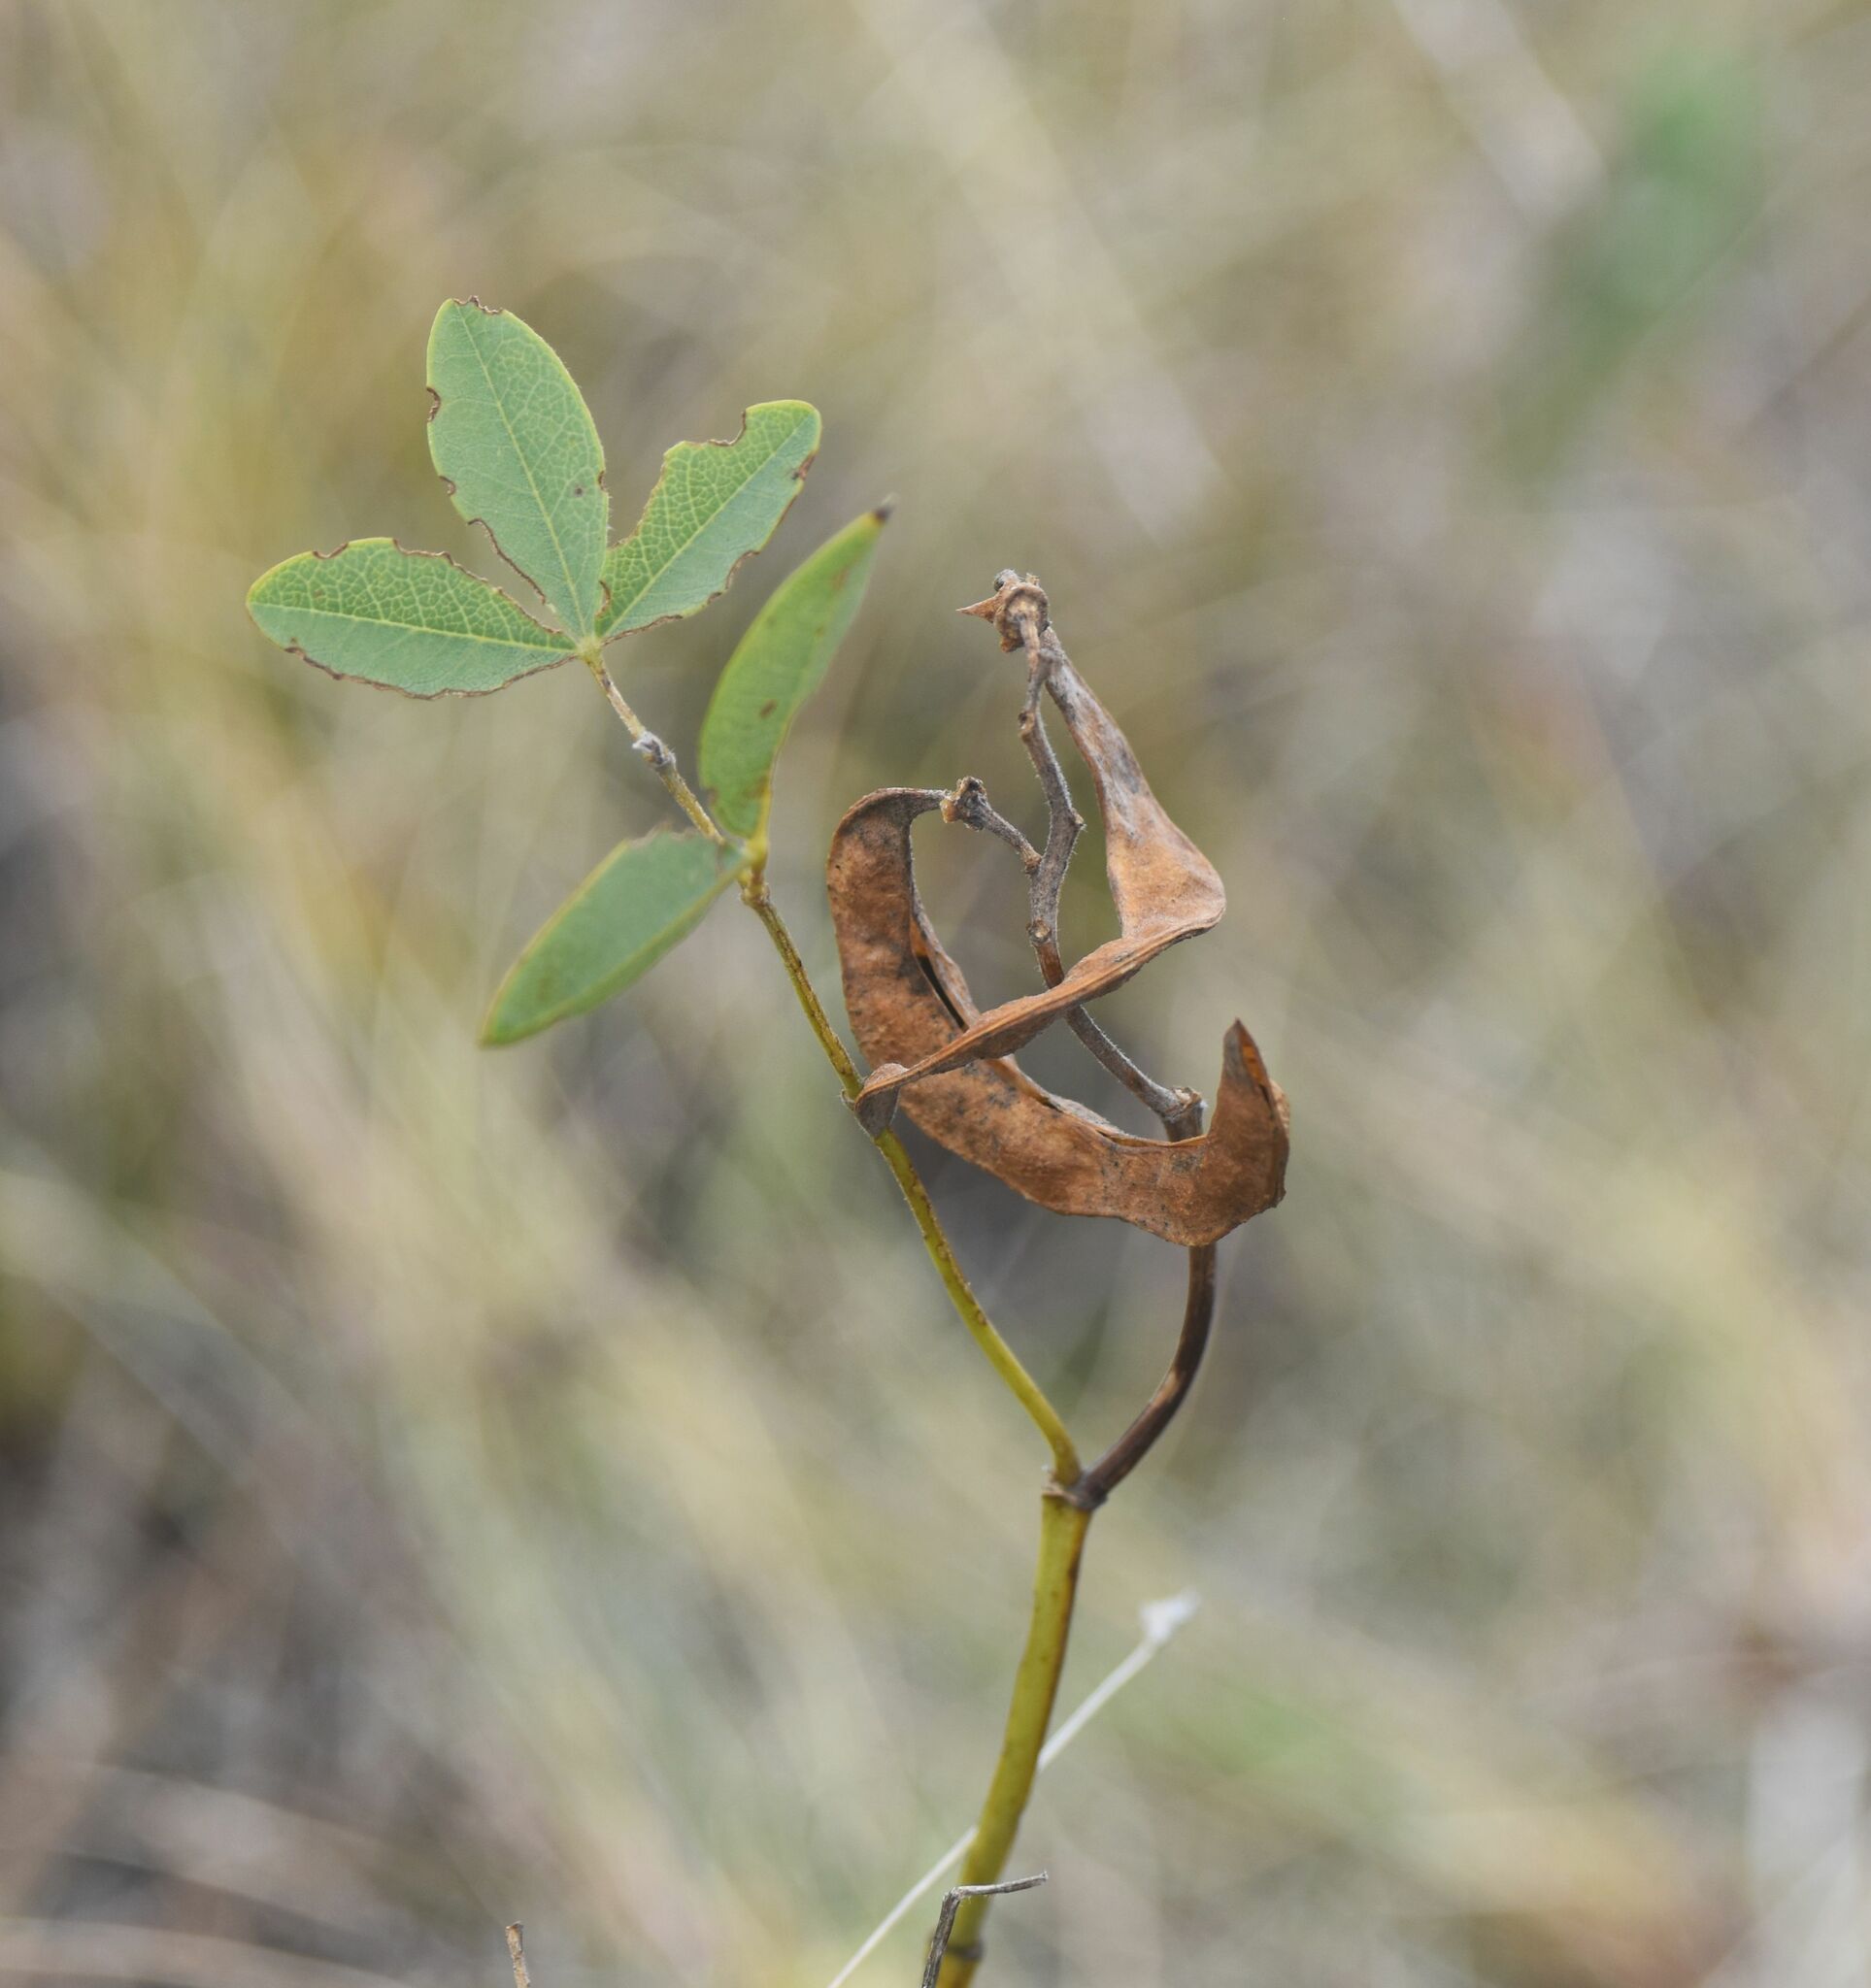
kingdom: Plantae
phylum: Tracheophyta
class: Magnoliopsida
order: Fabales
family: Fabaceae
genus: Thermopsis
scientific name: Thermopsis rhombifolia
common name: Circle-pod-pea
